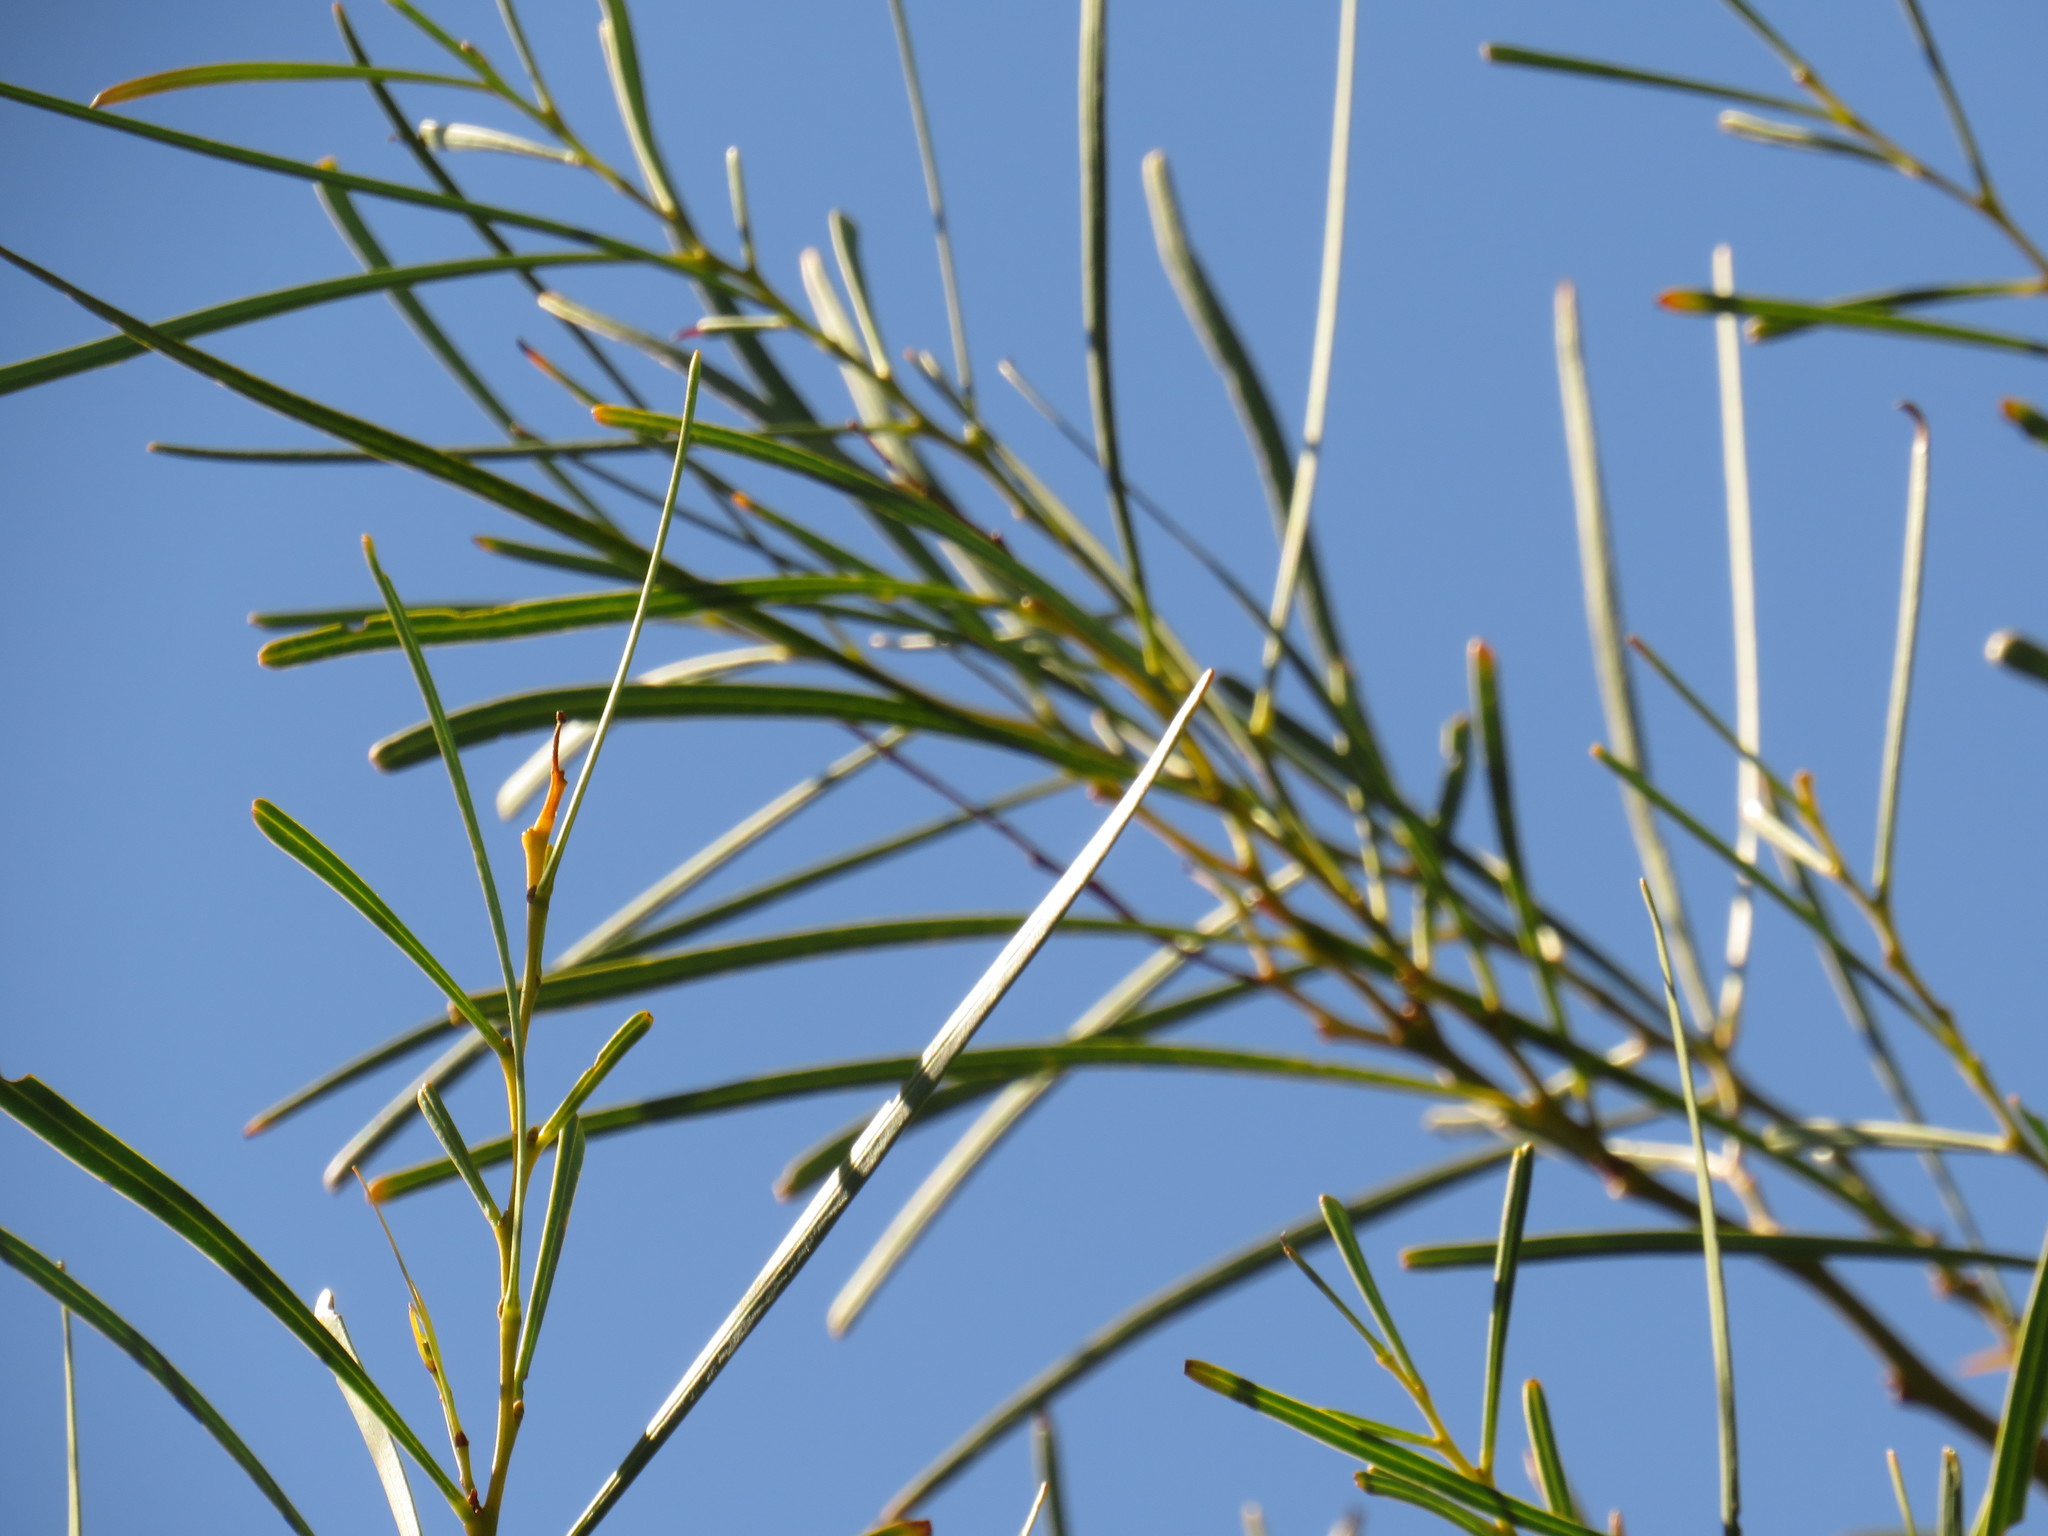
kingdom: Plantae
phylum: Tracheophyta
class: Magnoliopsida
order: Fabales
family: Fabaceae
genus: Acacia
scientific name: Acacia saligna
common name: Orange wattle
